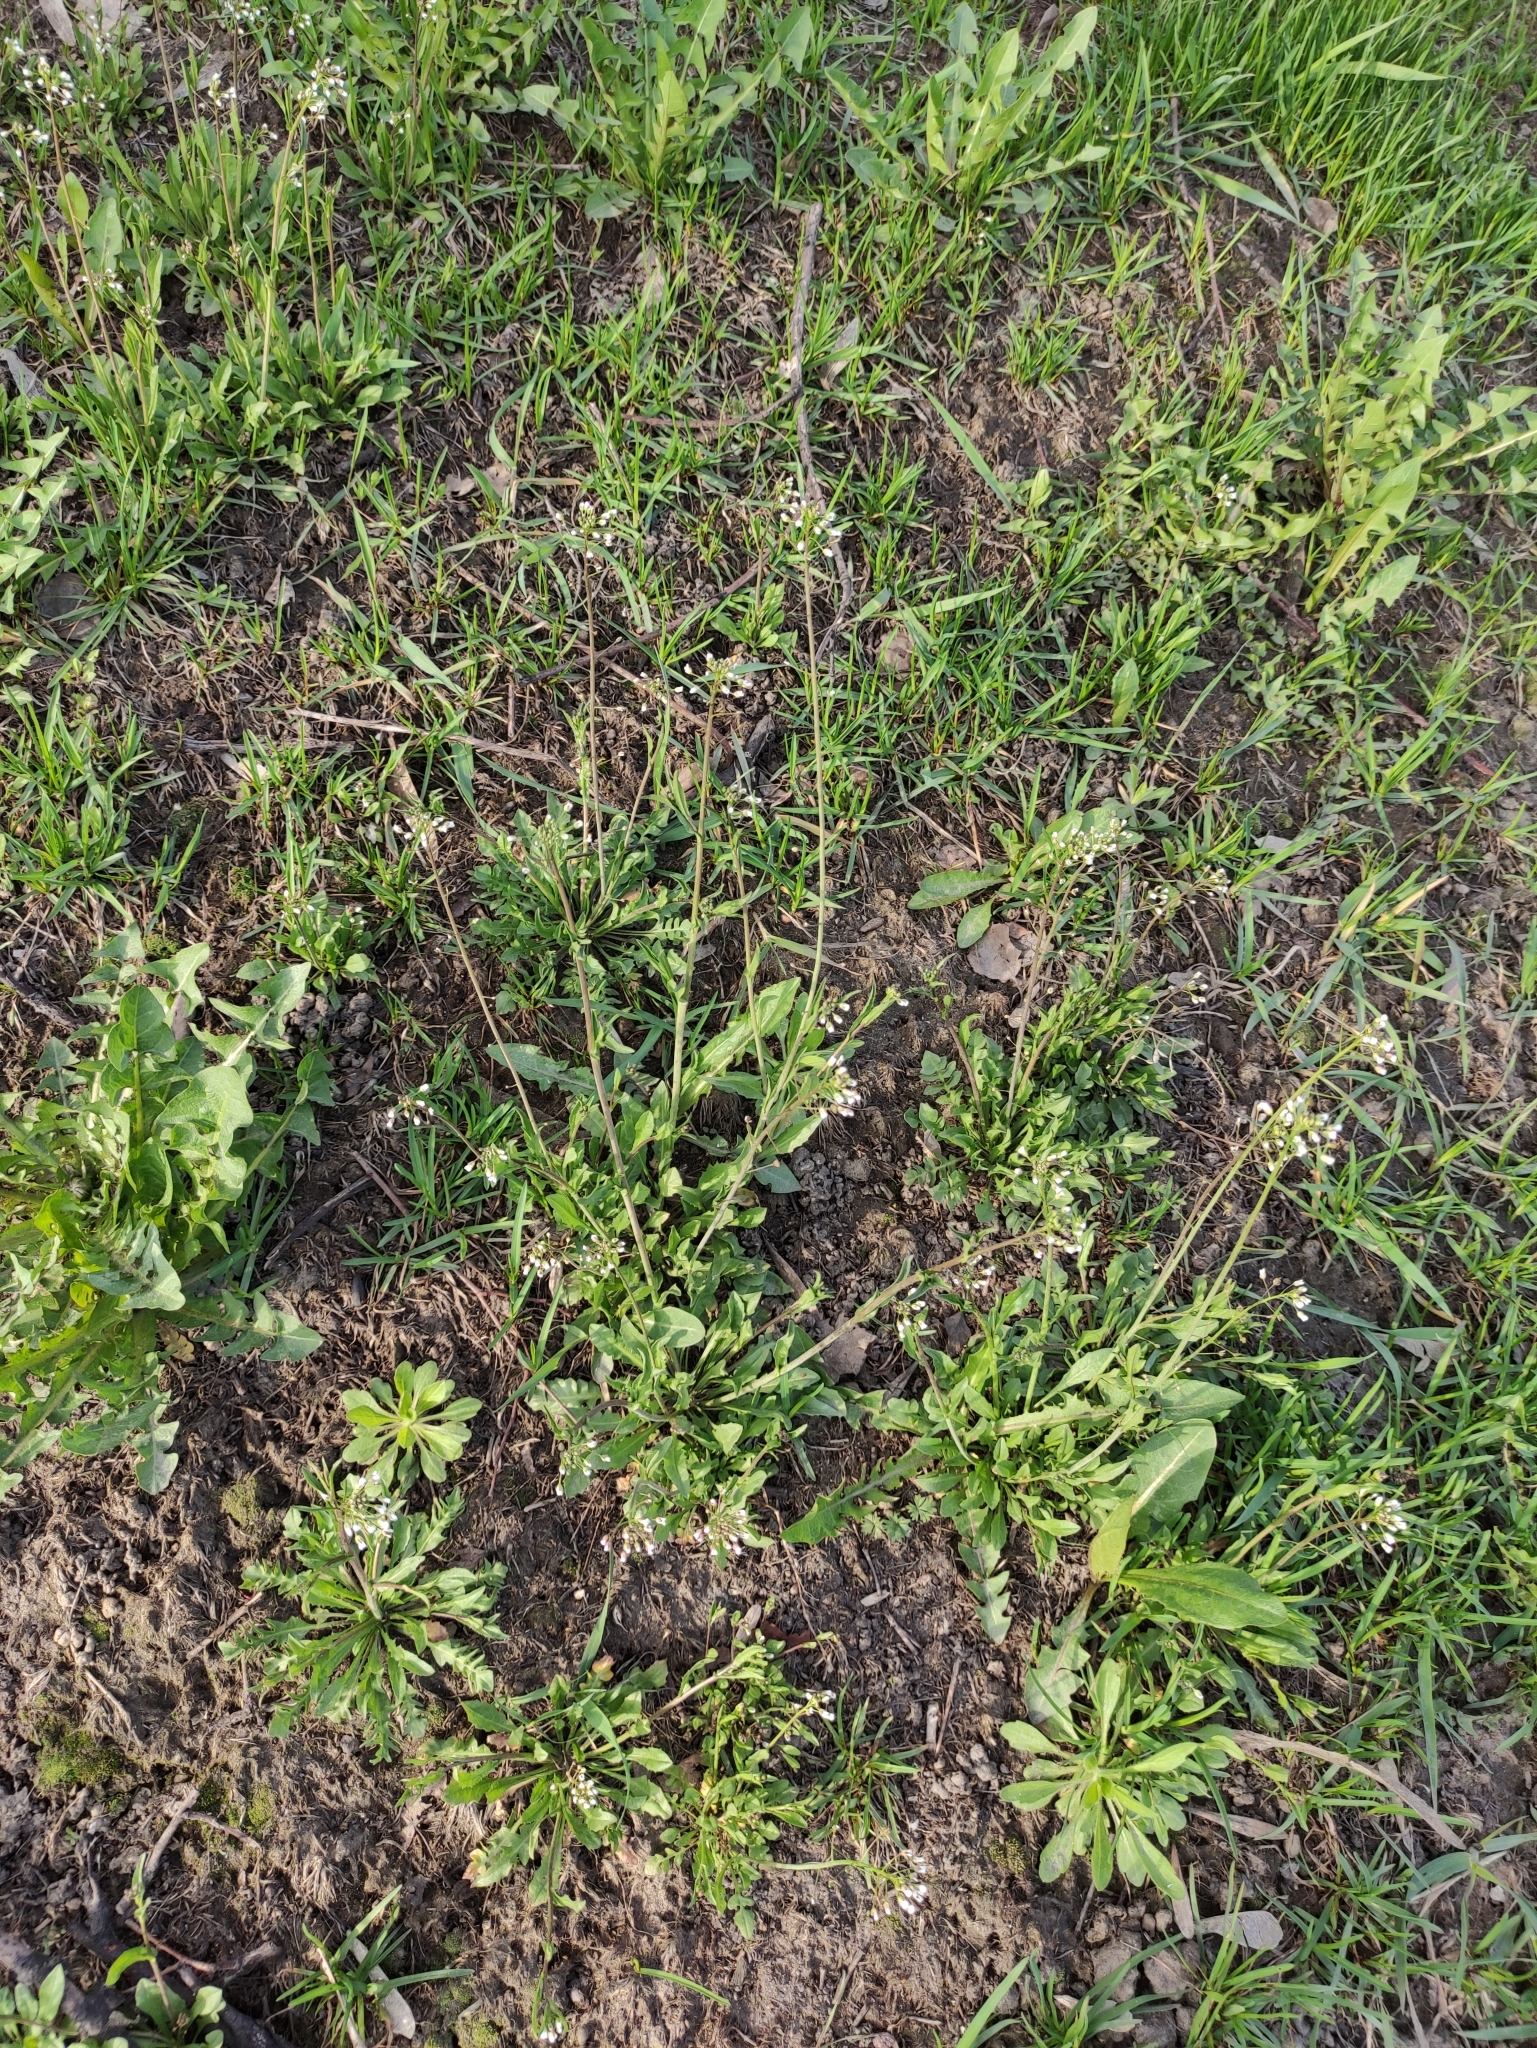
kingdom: Plantae
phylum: Tracheophyta
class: Magnoliopsida
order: Brassicales
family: Brassicaceae
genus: Capsella
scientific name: Capsella bursa-pastoris
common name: Shepherd's purse
